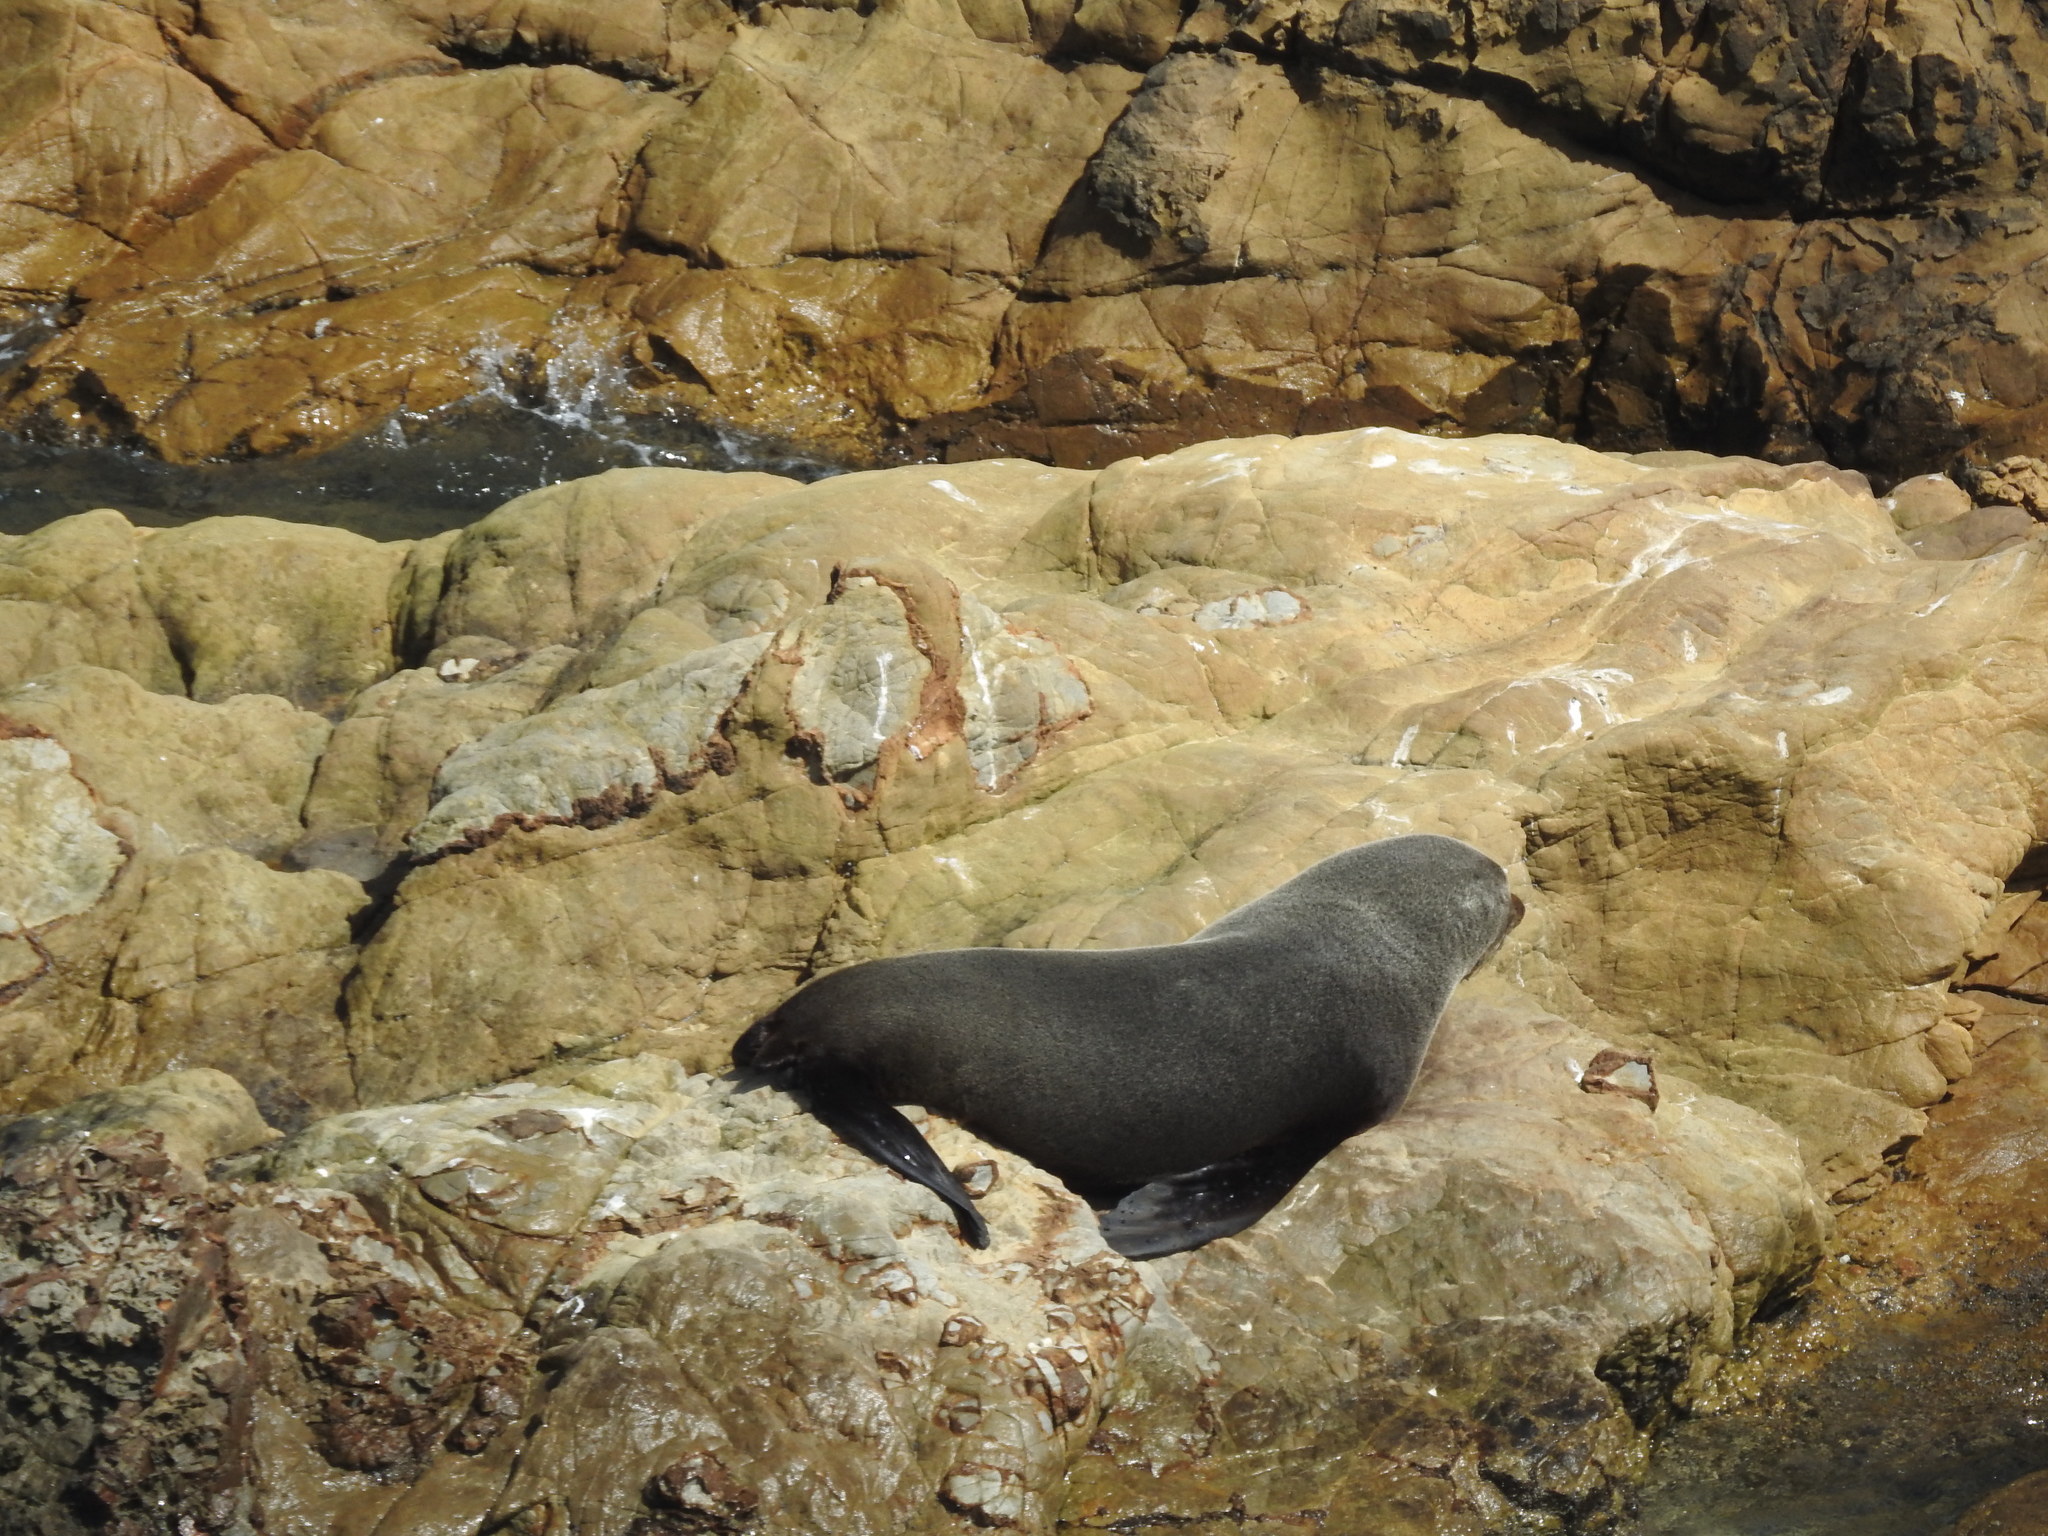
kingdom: Animalia
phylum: Chordata
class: Mammalia
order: Carnivora
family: Otariidae
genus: Arctocephalus
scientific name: Arctocephalus forsteri
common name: New zealand fur seal
